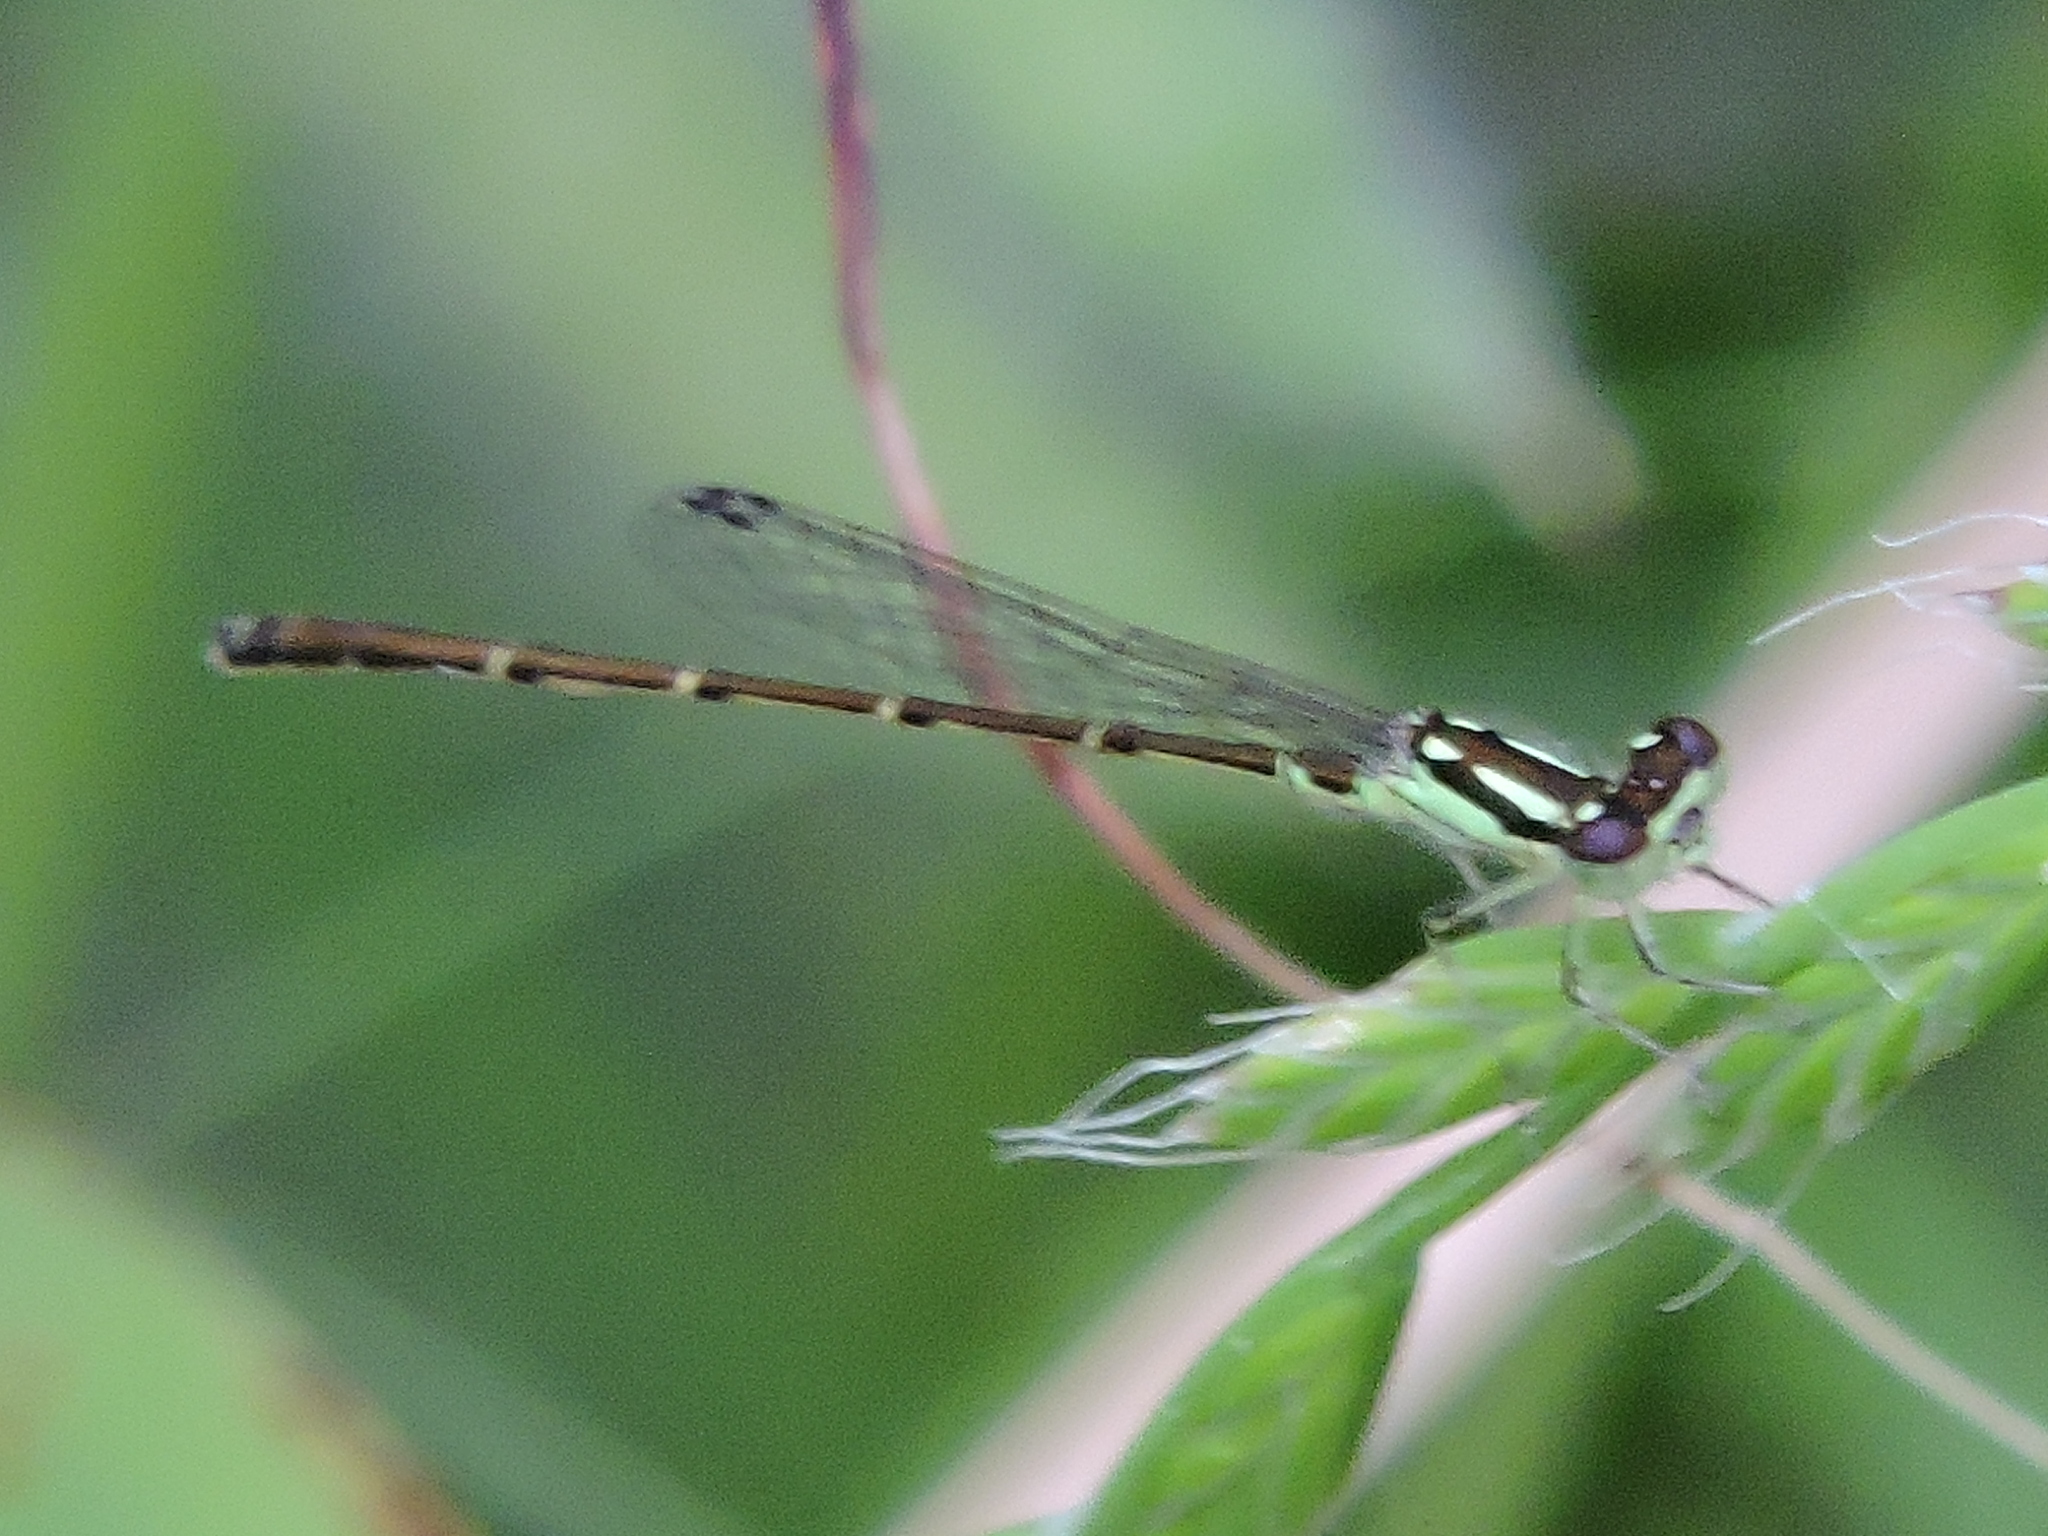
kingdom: Animalia
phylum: Arthropoda
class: Insecta
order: Odonata
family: Coenagrionidae
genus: Ischnura
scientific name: Ischnura posita
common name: Fragile forktail
